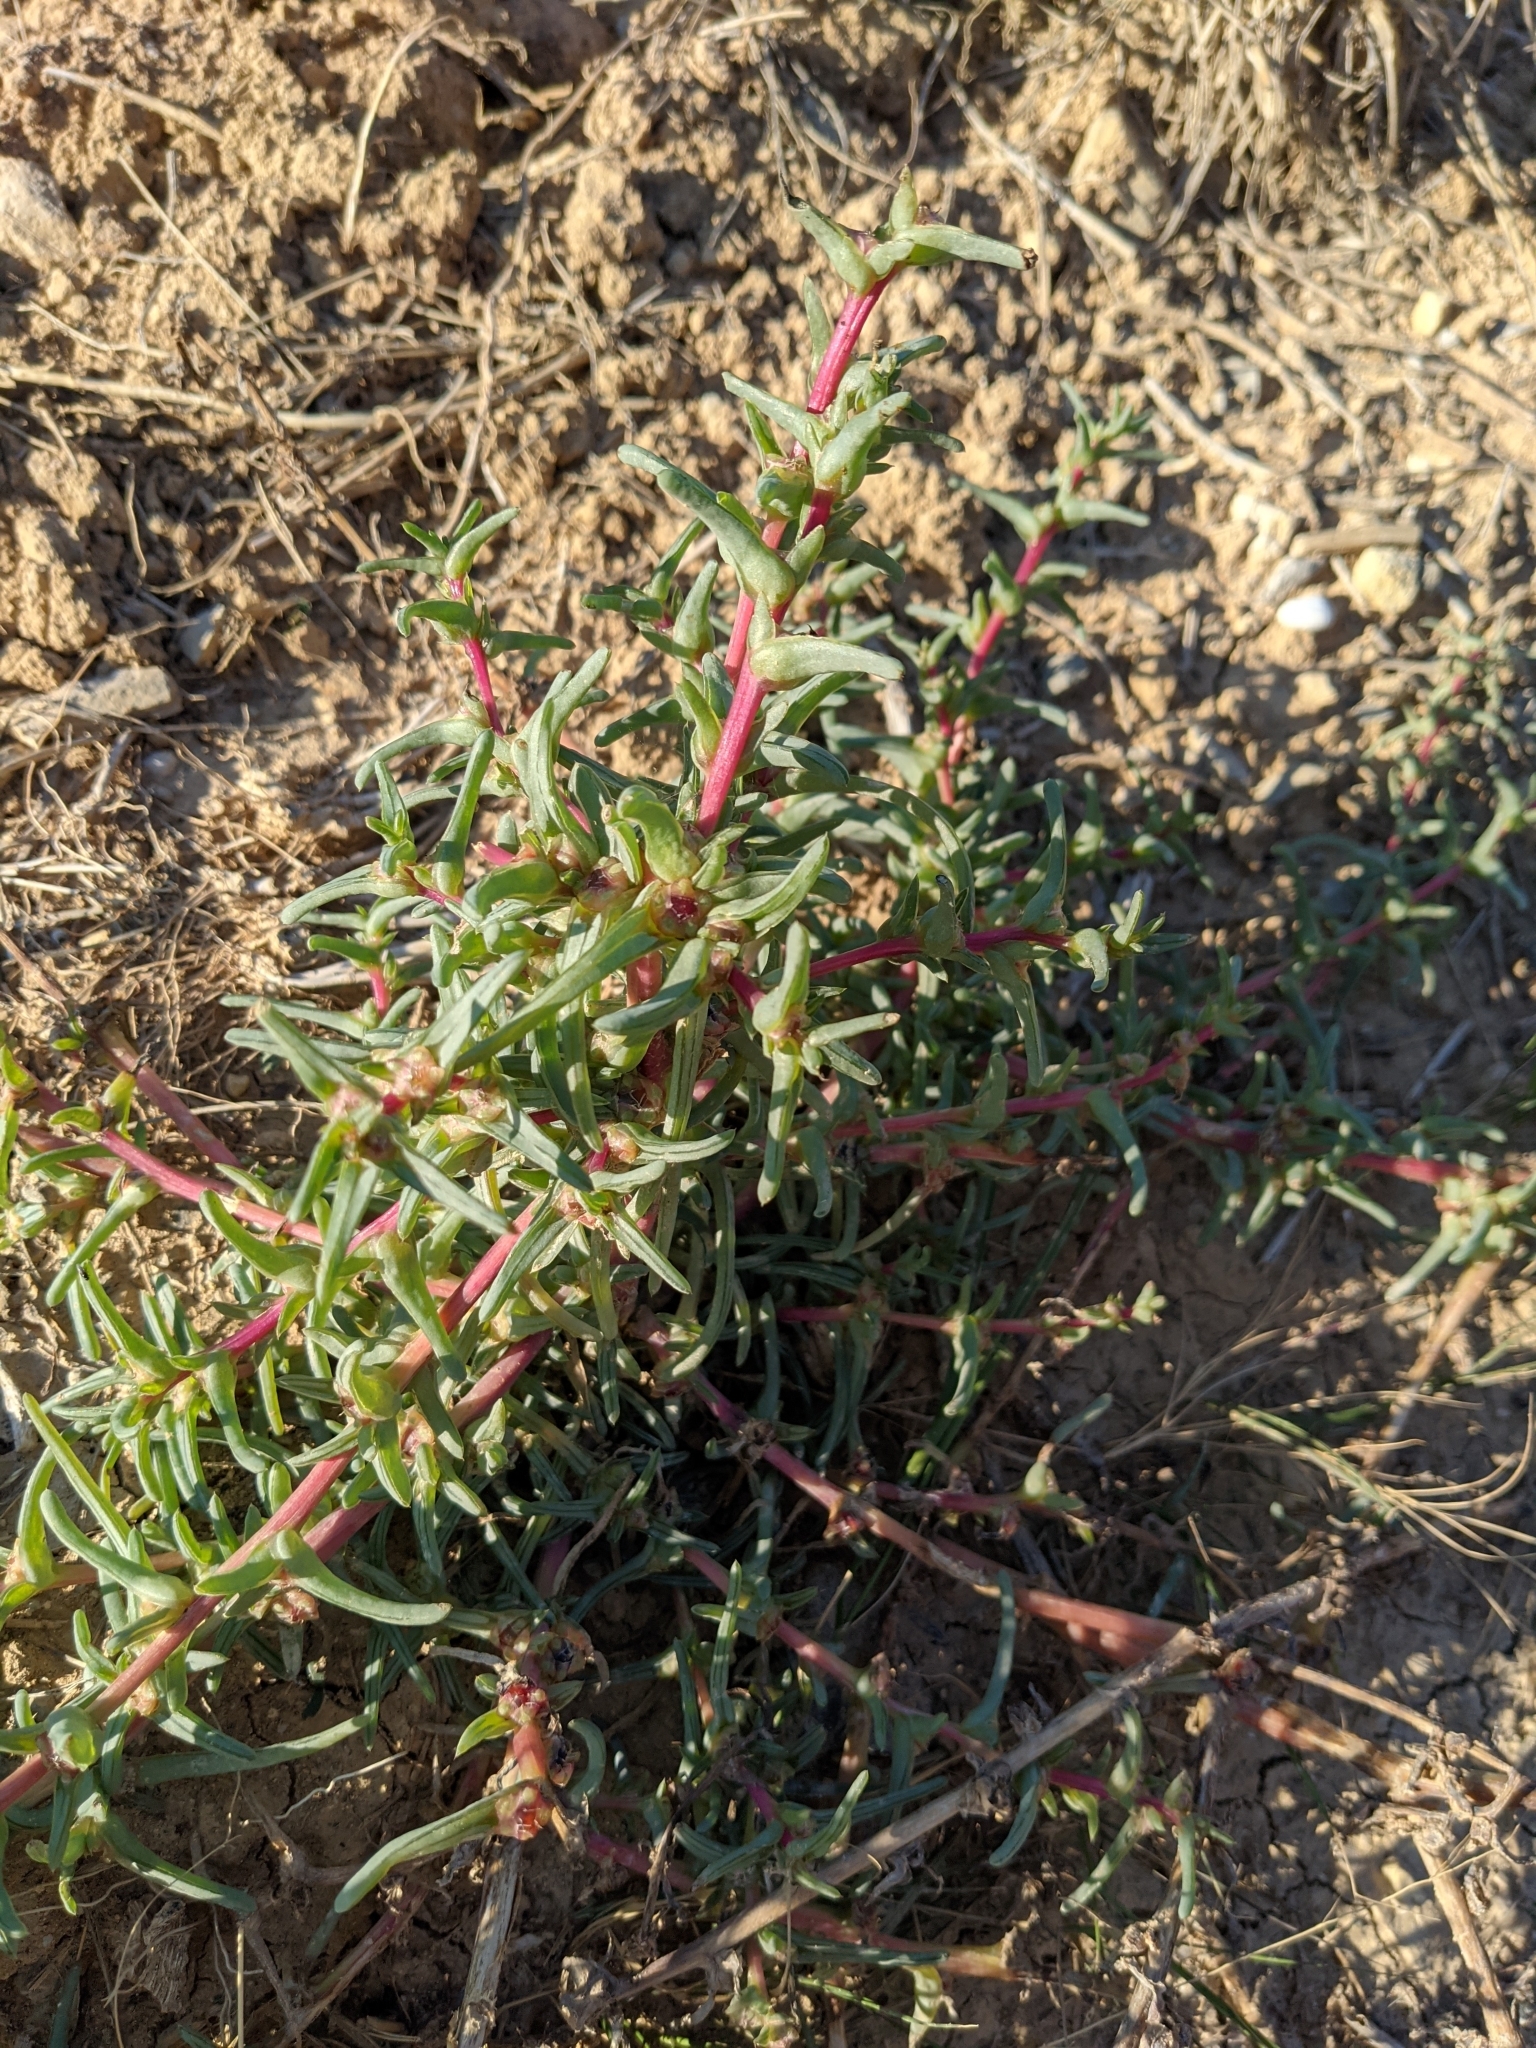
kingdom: Plantae
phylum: Tracheophyta
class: Magnoliopsida
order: Caryophyllales
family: Amaranthaceae
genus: Salsola
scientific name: Salsola soda
